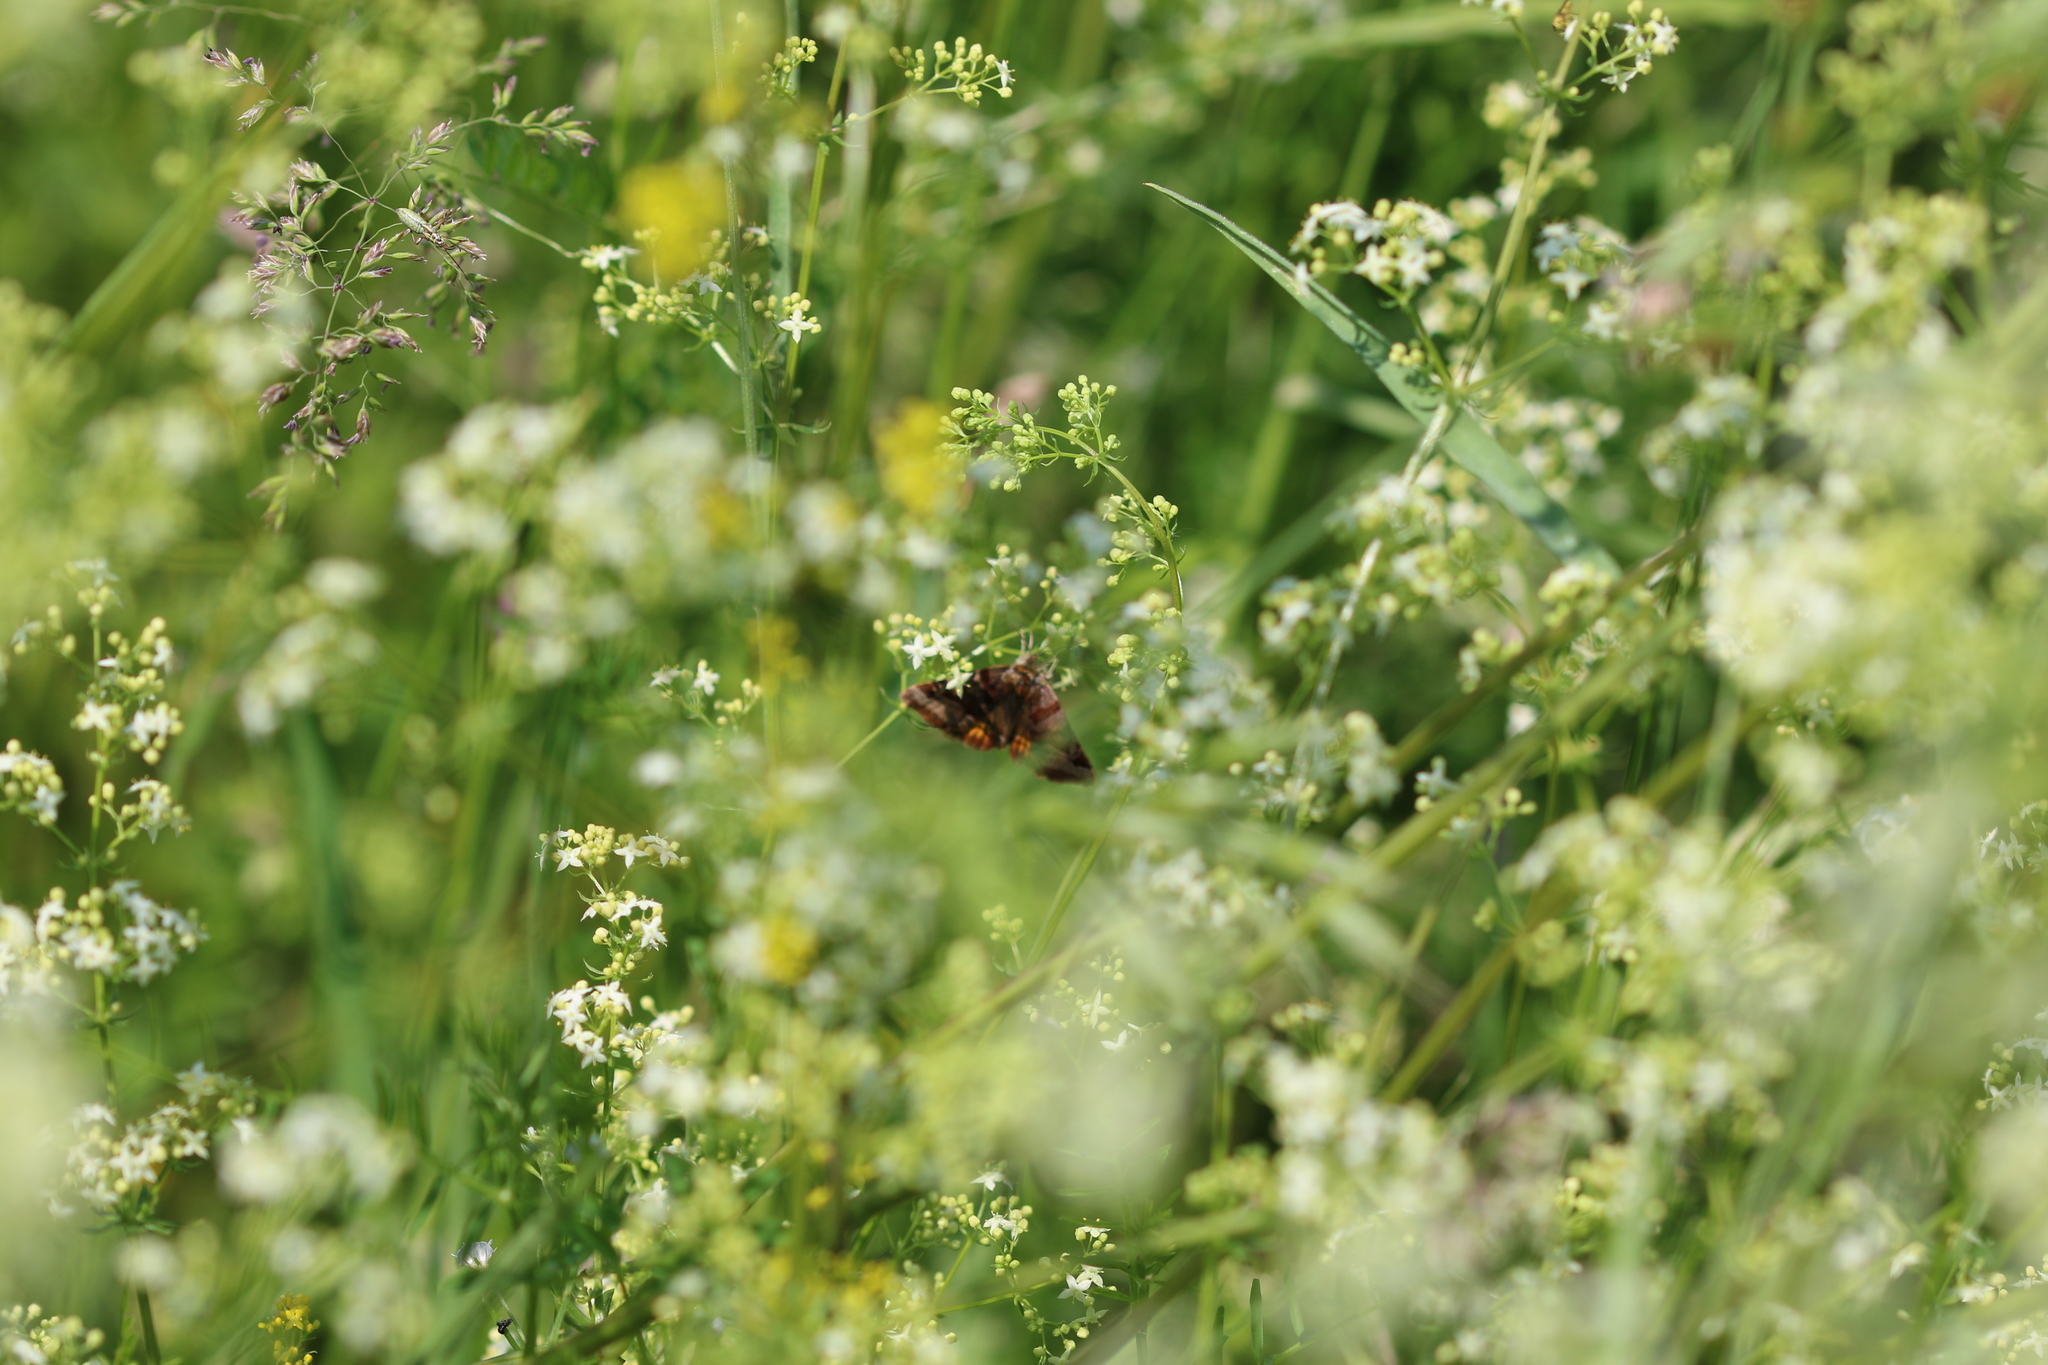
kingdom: Animalia
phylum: Arthropoda
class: Insecta
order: Lepidoptera
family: Erebidae
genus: Euclidia
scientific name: Euclidia glyphica
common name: Burnet companion
